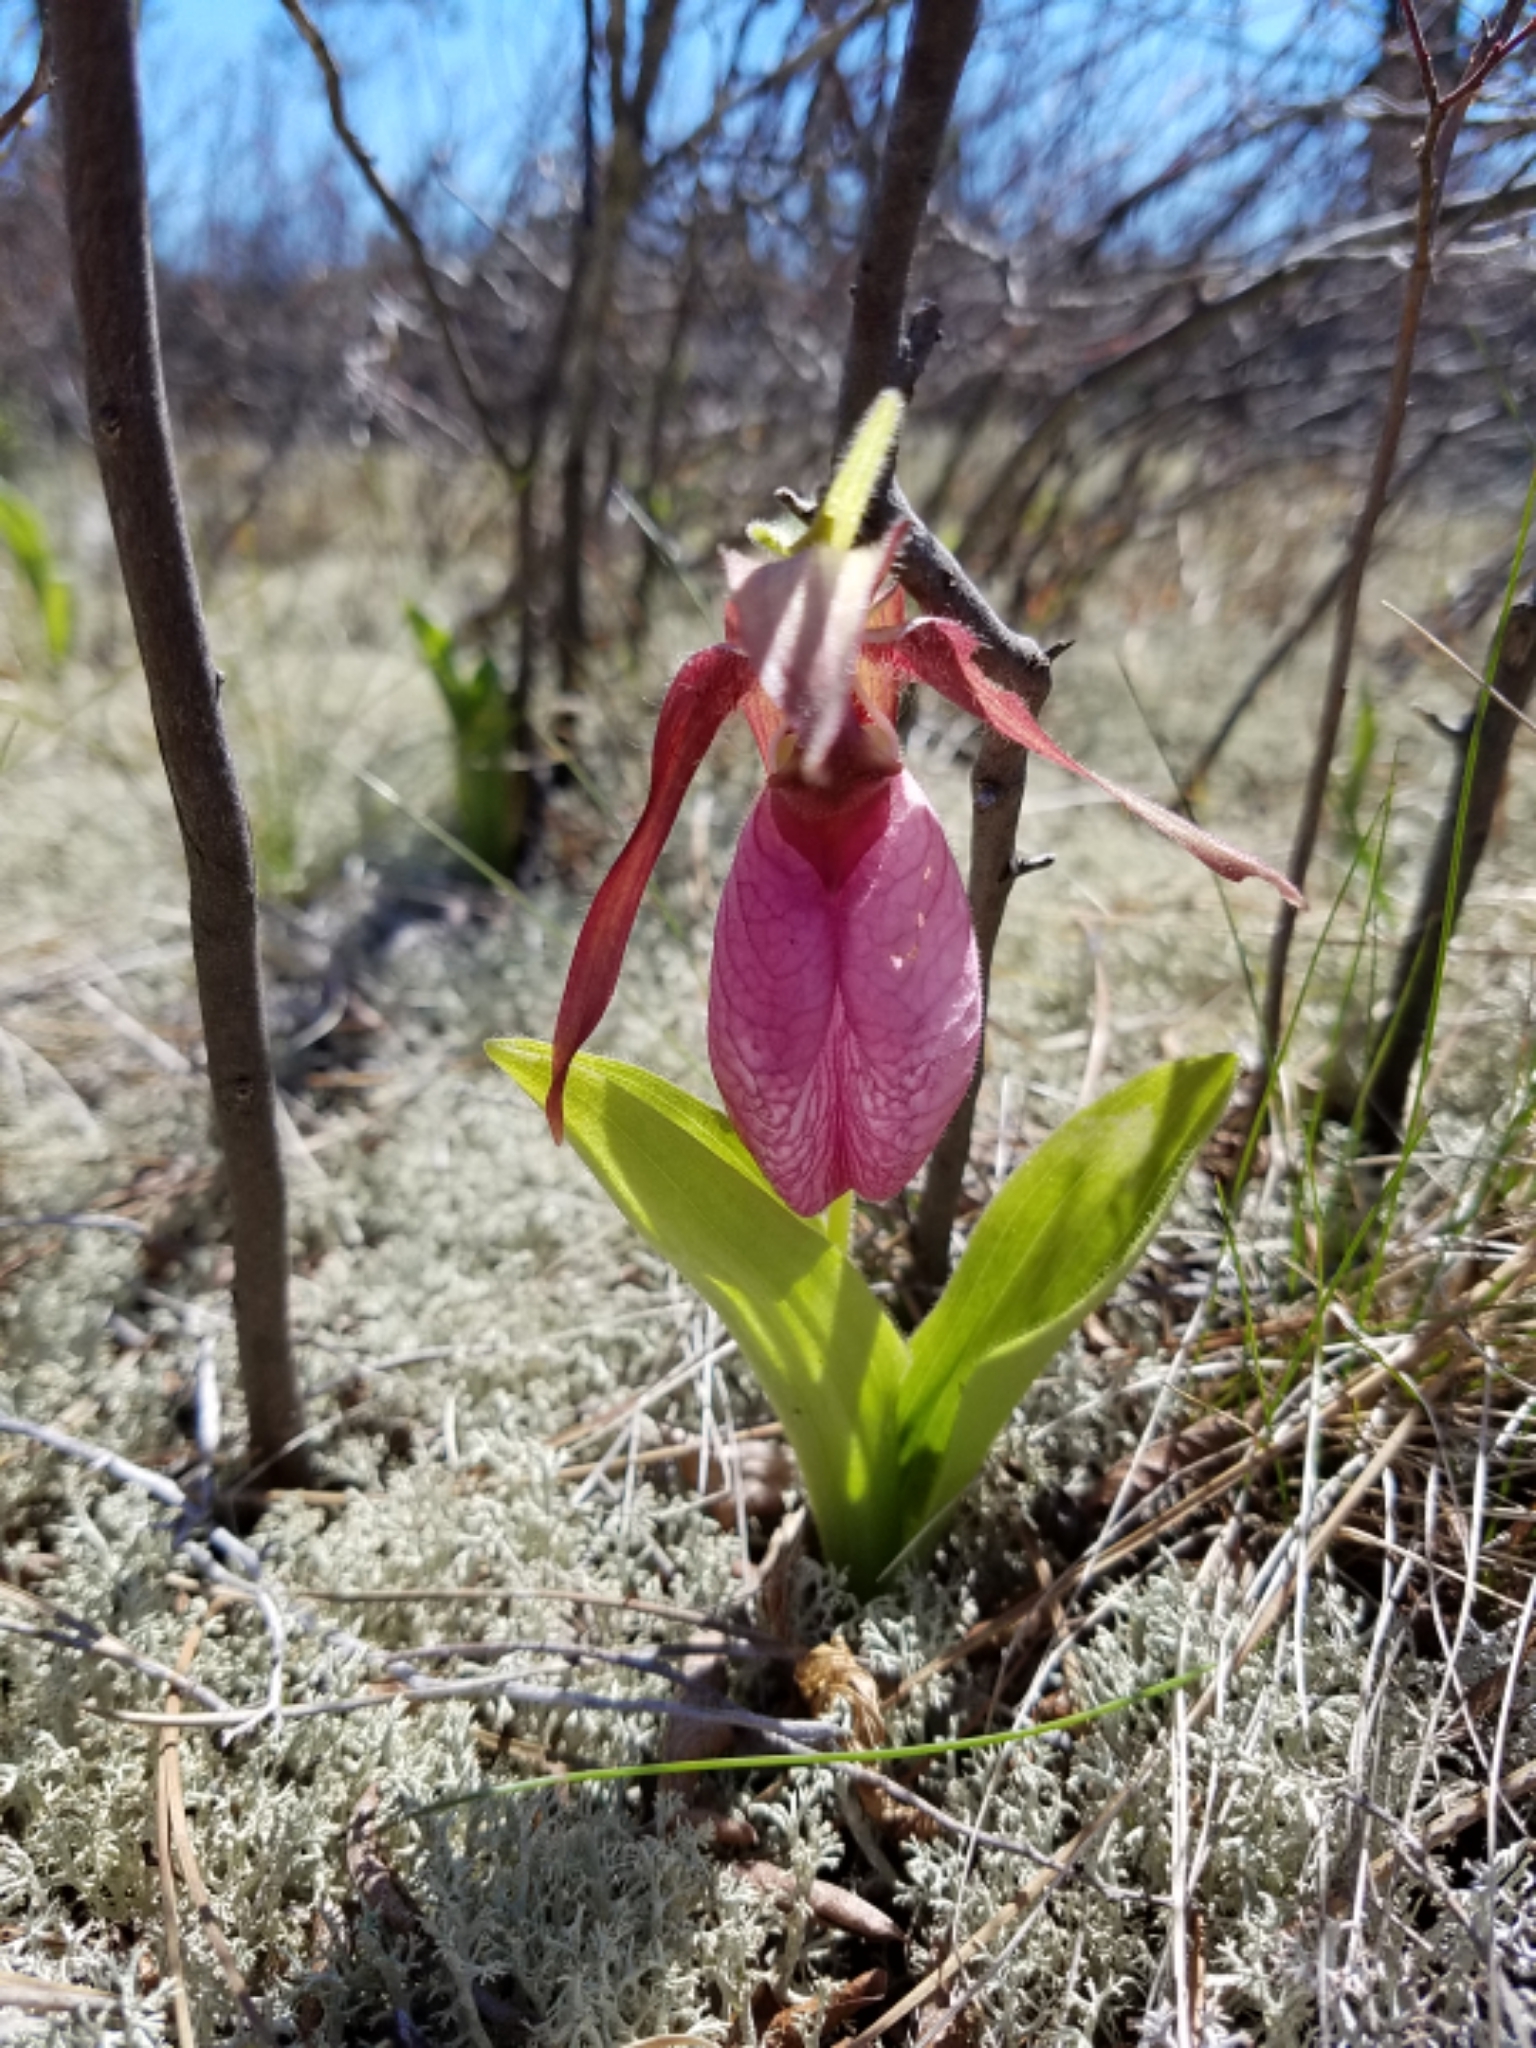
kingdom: Plantae
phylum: Tracheophyta
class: Liliopsida
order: Asparagales
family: Orchidaceae
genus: Cypripedium
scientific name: Cypripedium acaule
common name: Pink lady's-slipper
